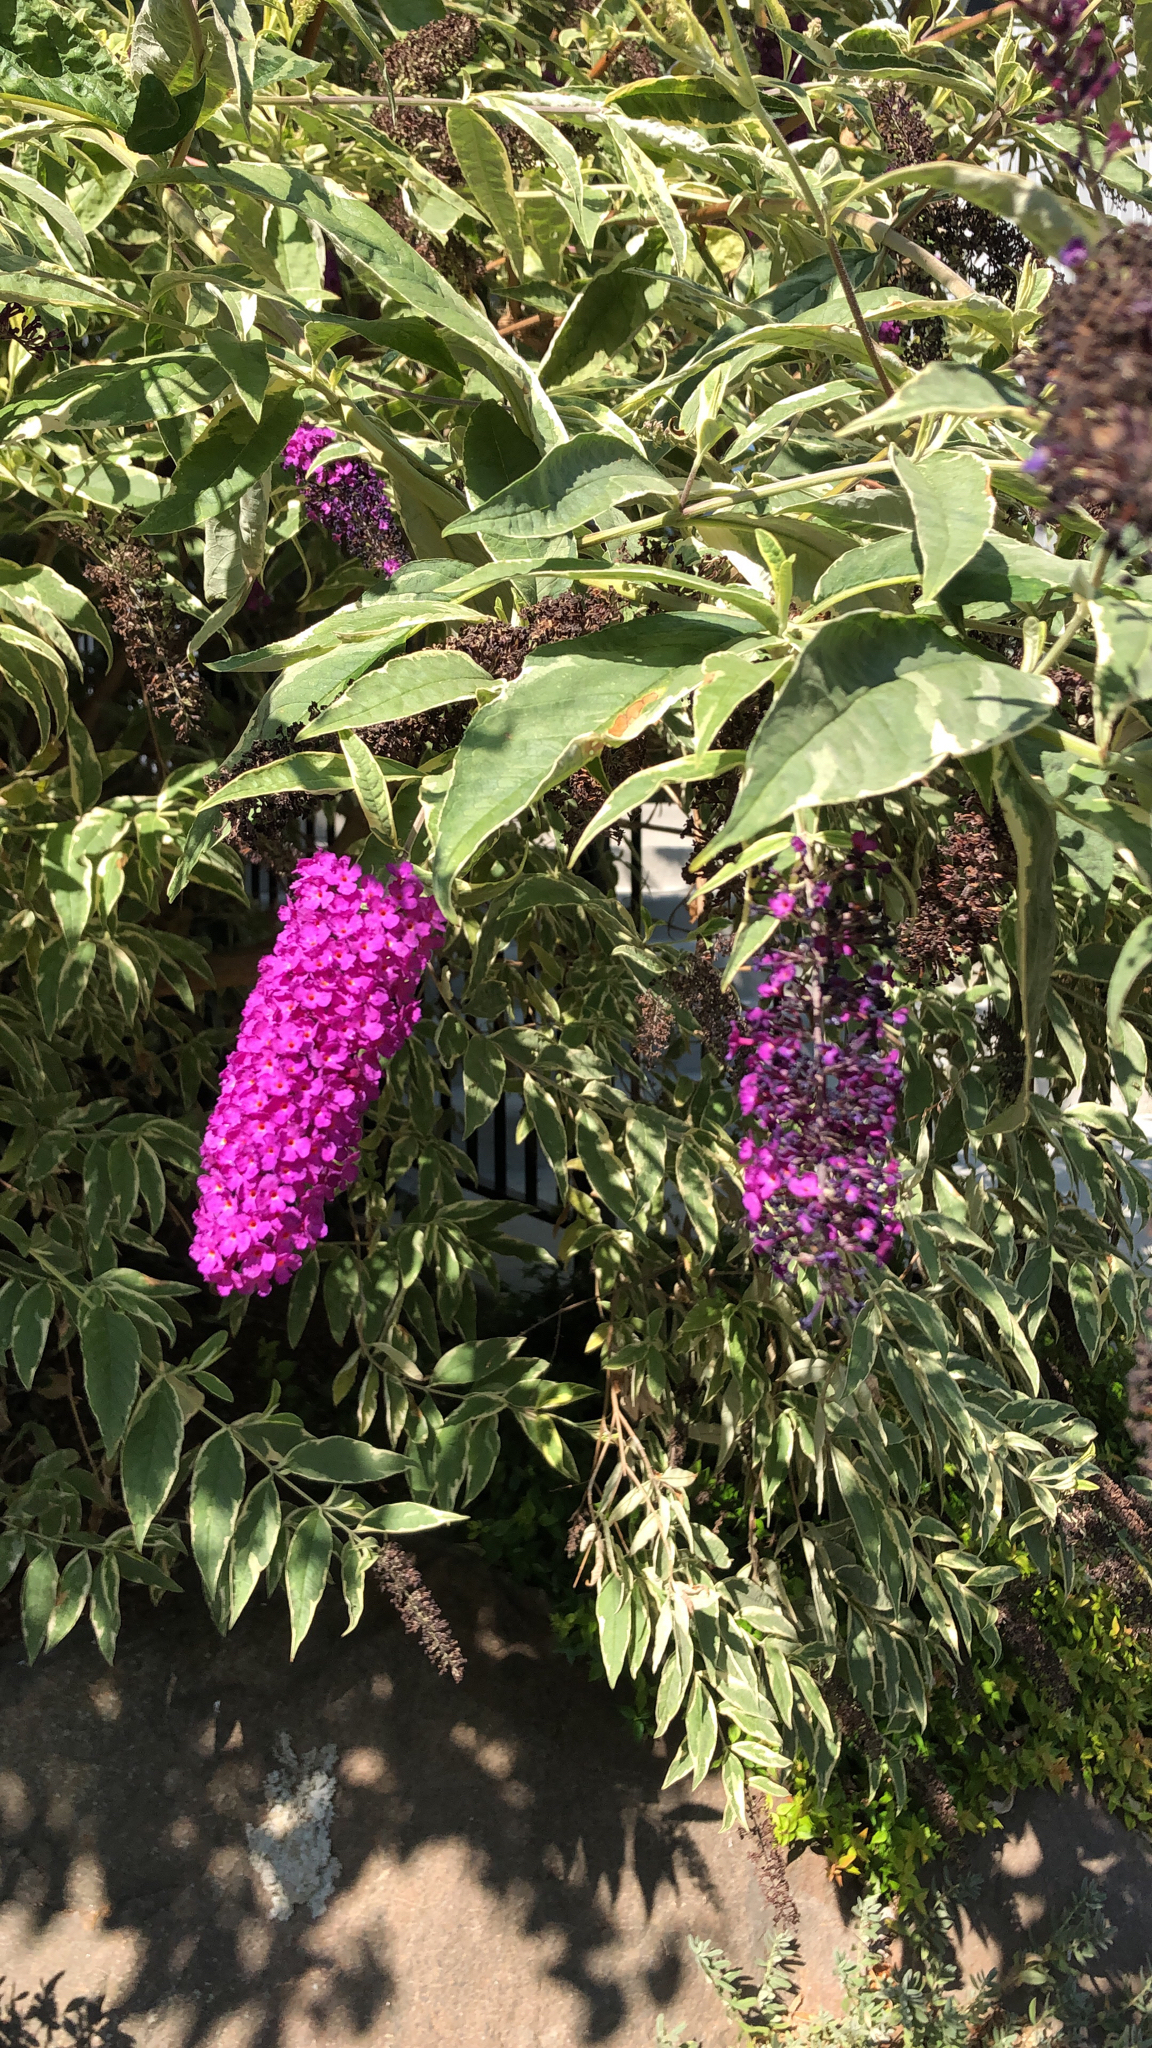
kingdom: Plantae
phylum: Tracheophyta
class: Magnoliopsida
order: Lamiales
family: Scrophulariaceae
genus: Buddleja
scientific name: Buddleja davidii
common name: Butterfly-bush
